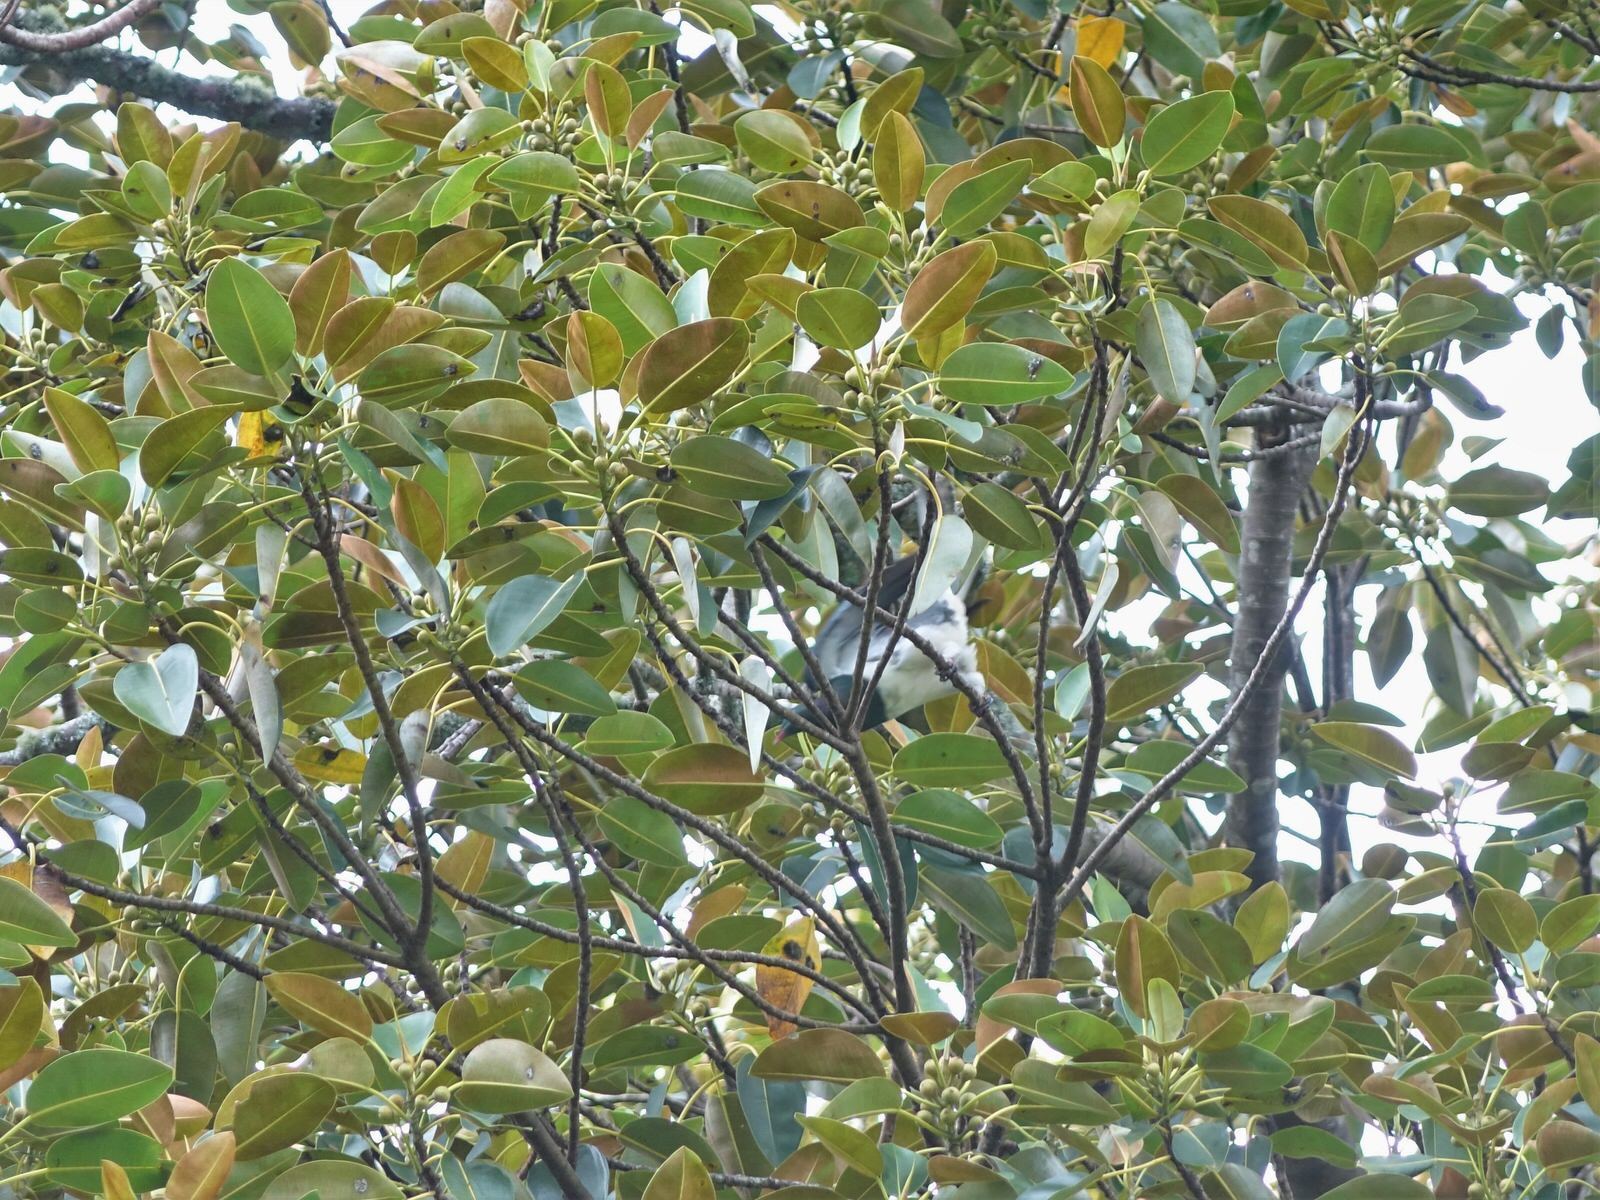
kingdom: Animalia
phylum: Chordata
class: Aves
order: Columbiformes
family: Columbidae
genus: Hemiphaga
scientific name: Hemiphaga novaeseelandiae
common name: New zealand pigeon
